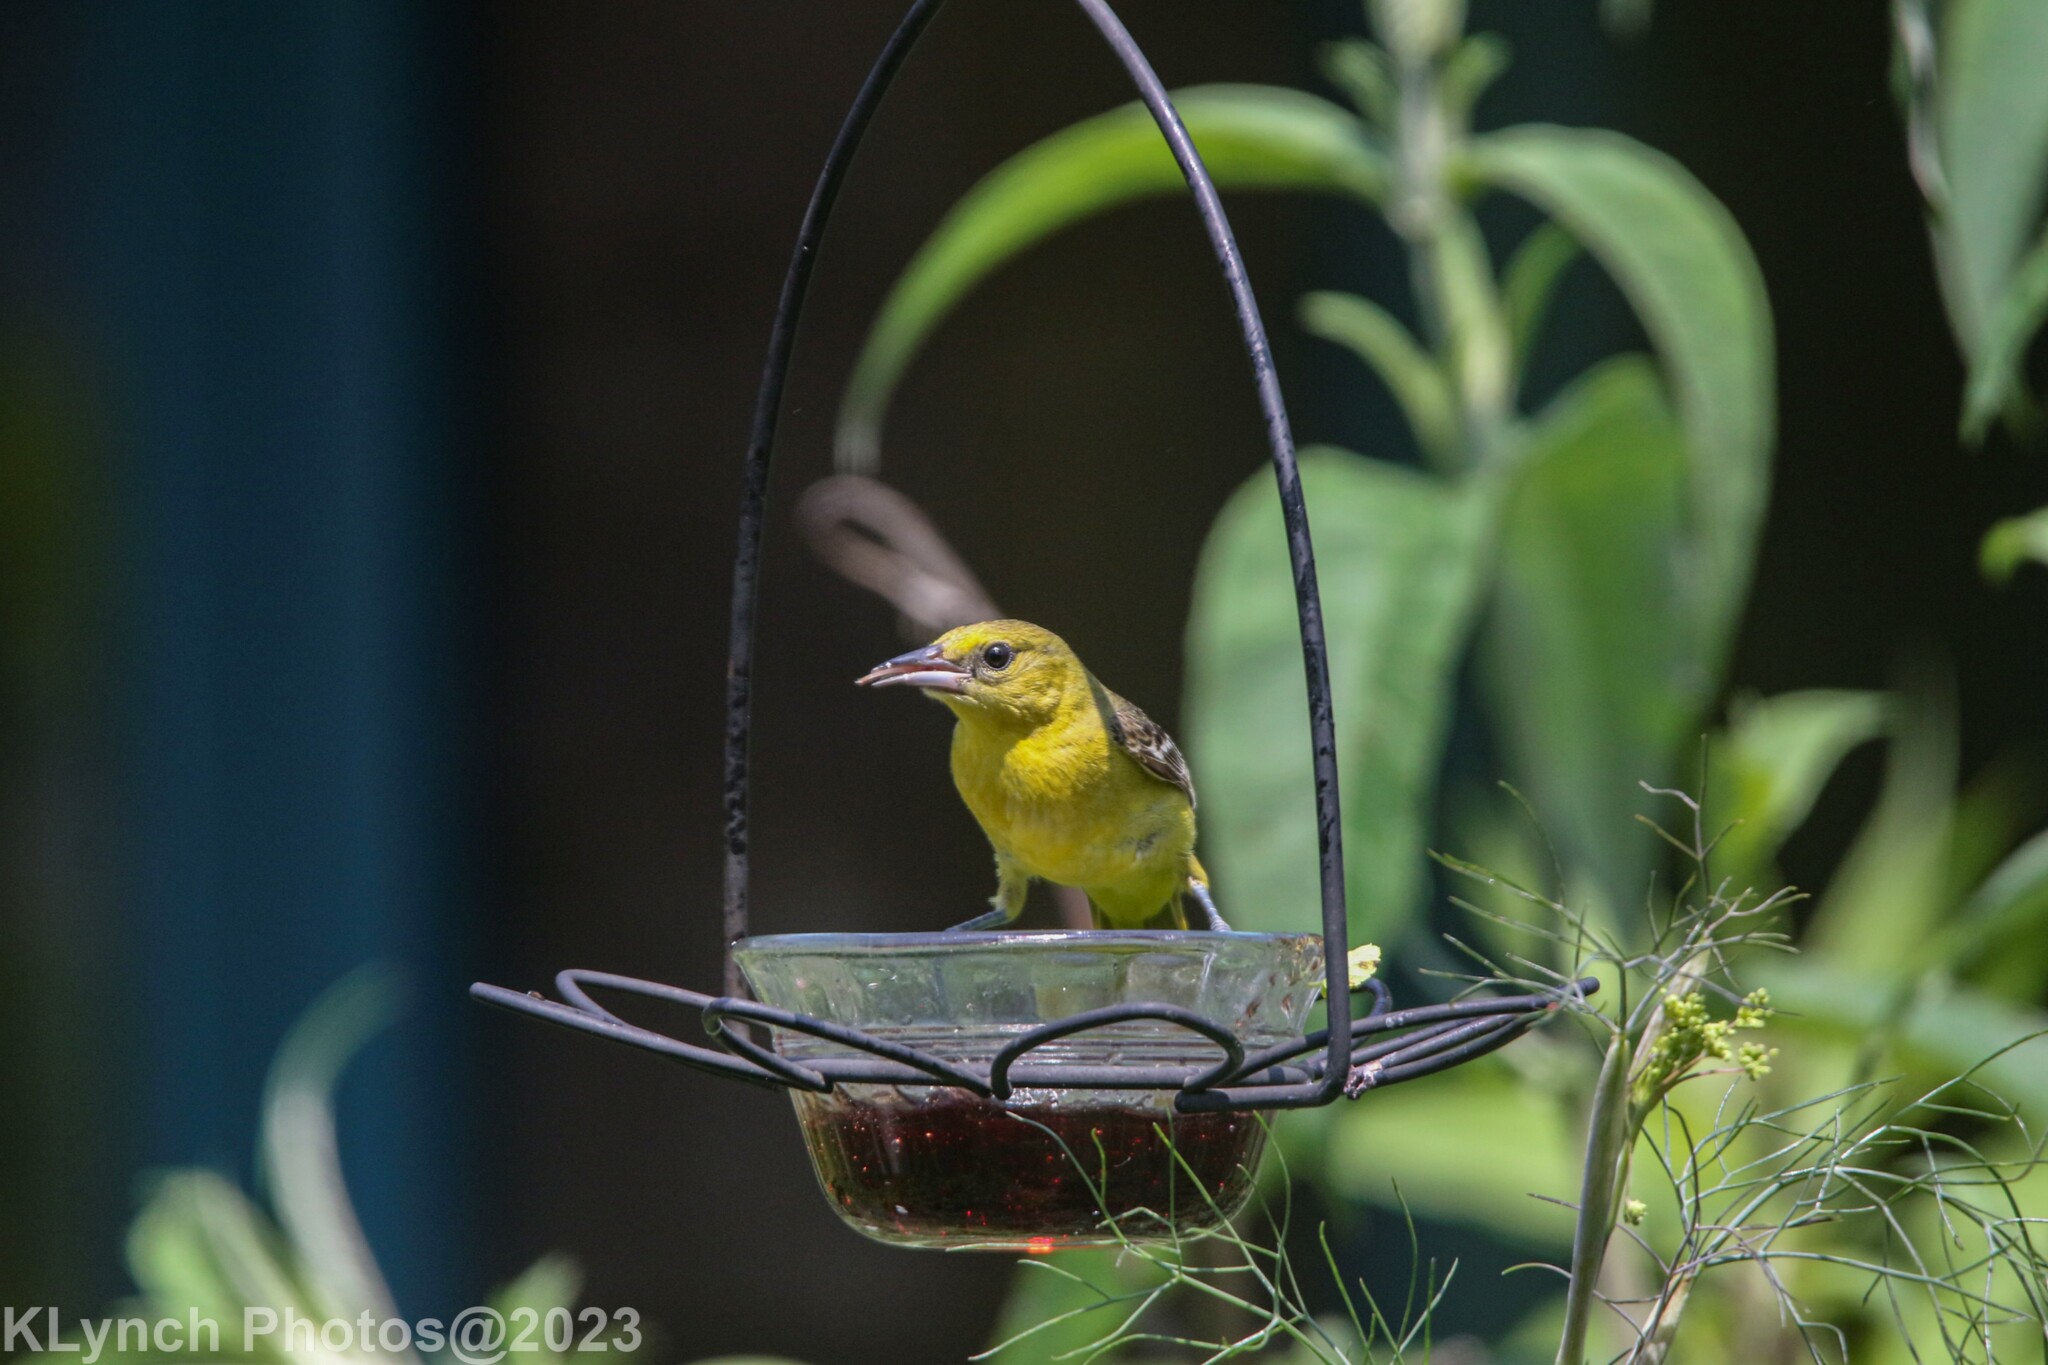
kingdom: Animalia
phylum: Chordata
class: Aves
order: Passeriformes
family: Icteridae
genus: Icterus
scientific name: Icterus galbula
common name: Baltimore oriole
